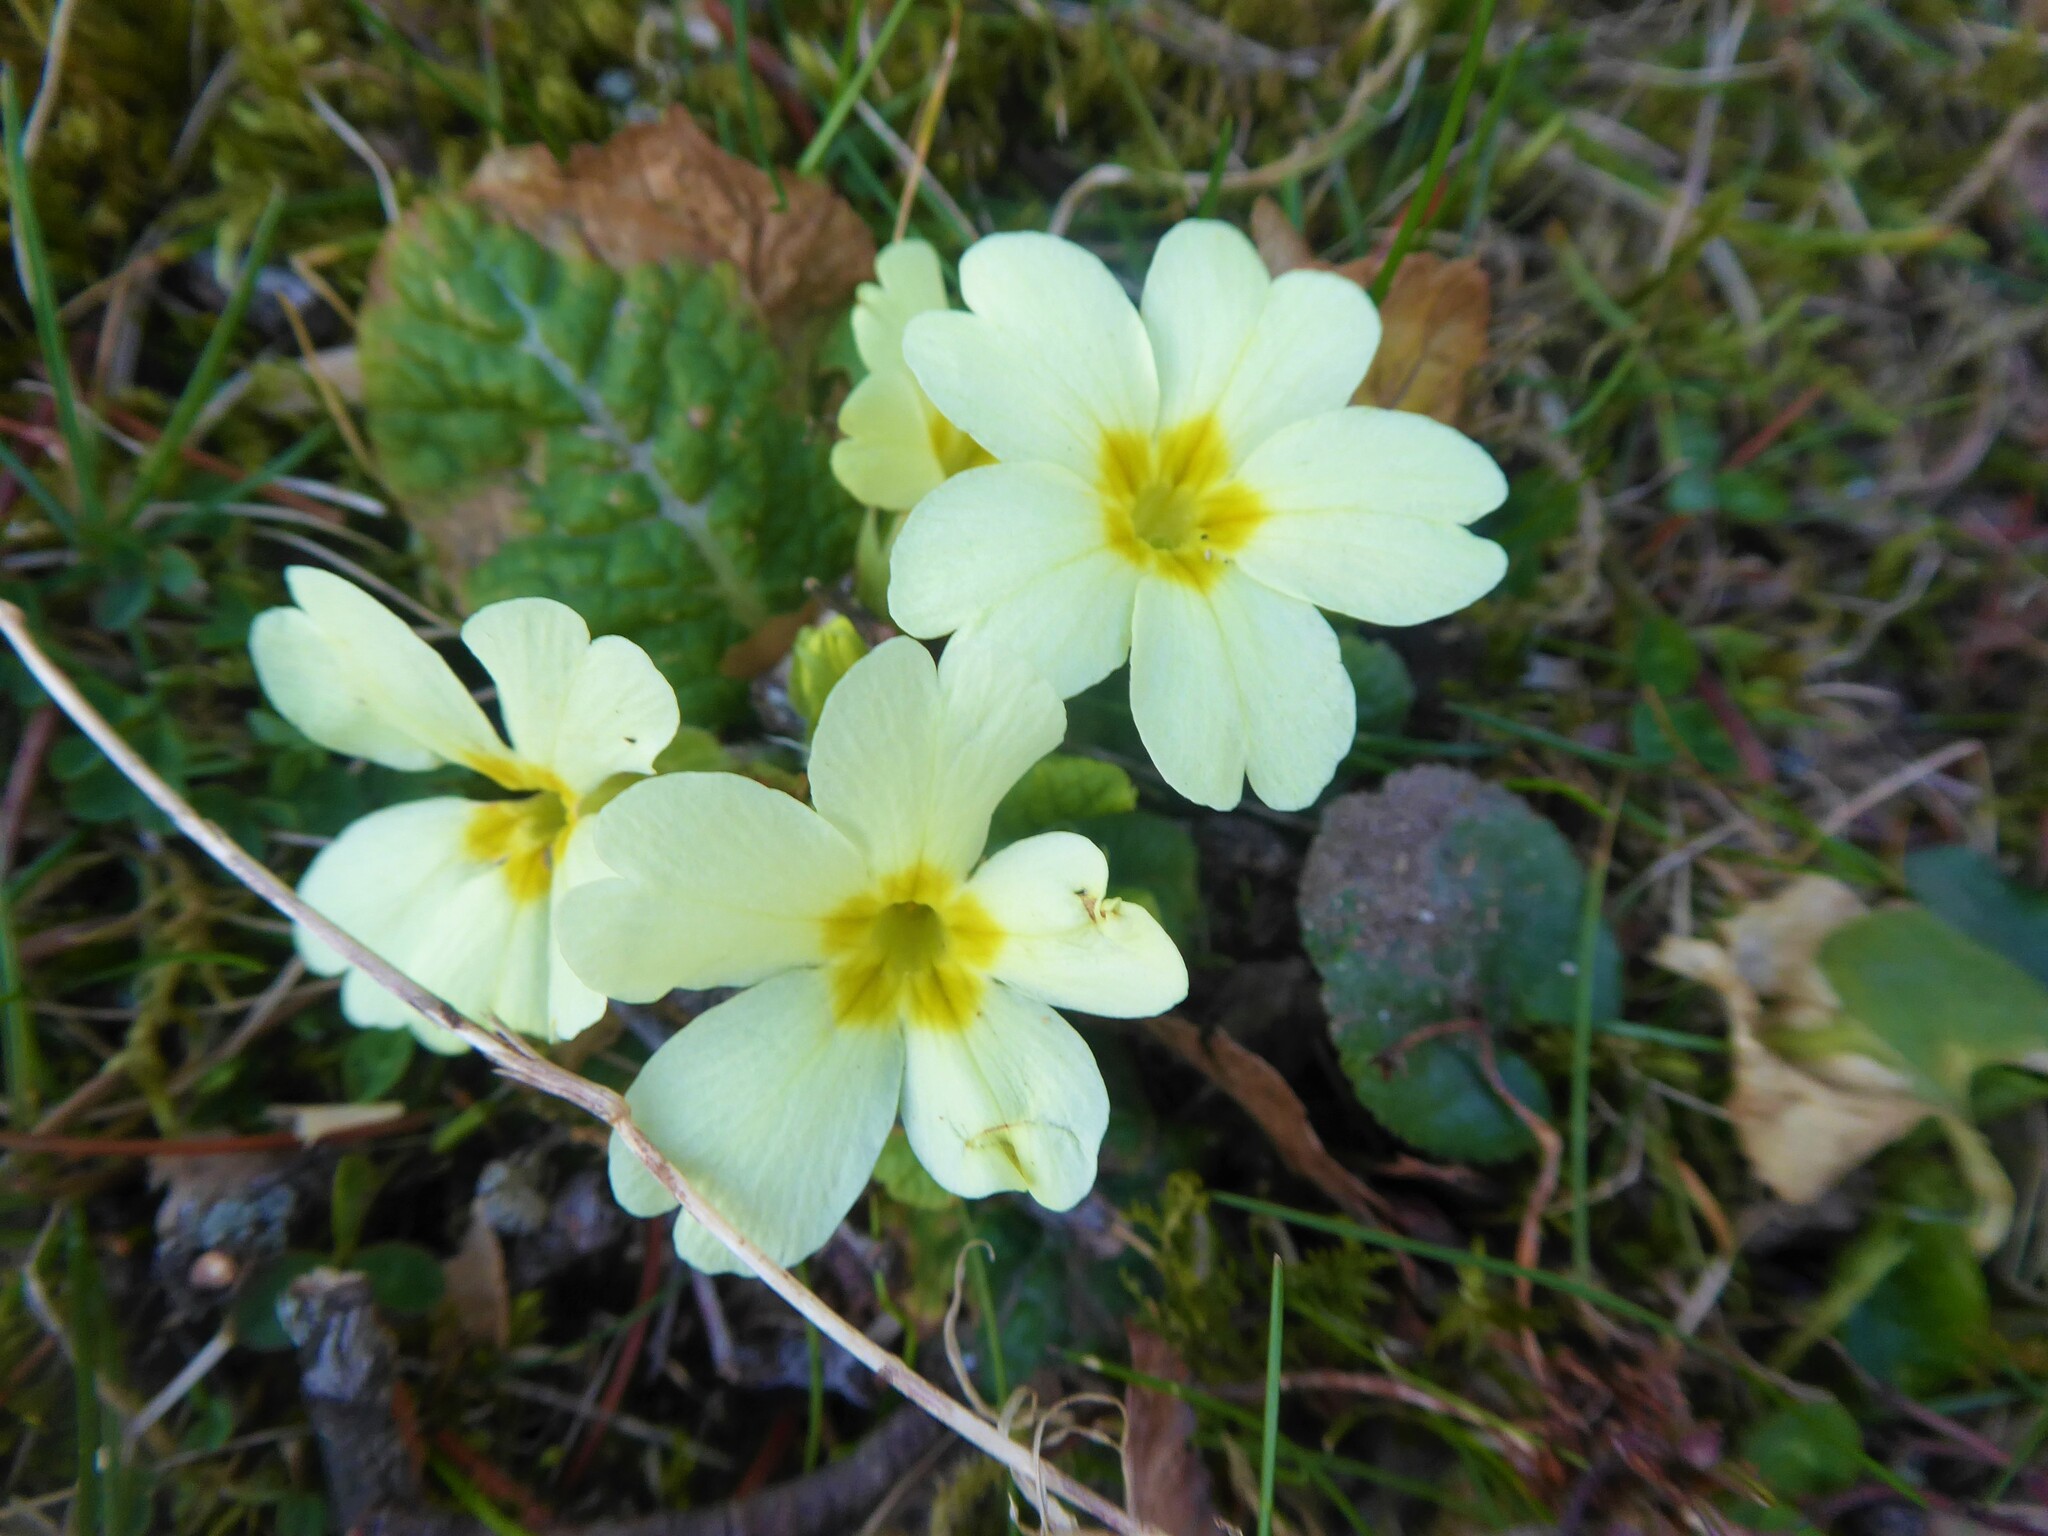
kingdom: Plantae
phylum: Tracheophyta
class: Magnoliopsida
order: Ericales
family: Primulaceae
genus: Primula
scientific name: Primula vulgaris
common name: Primrose
